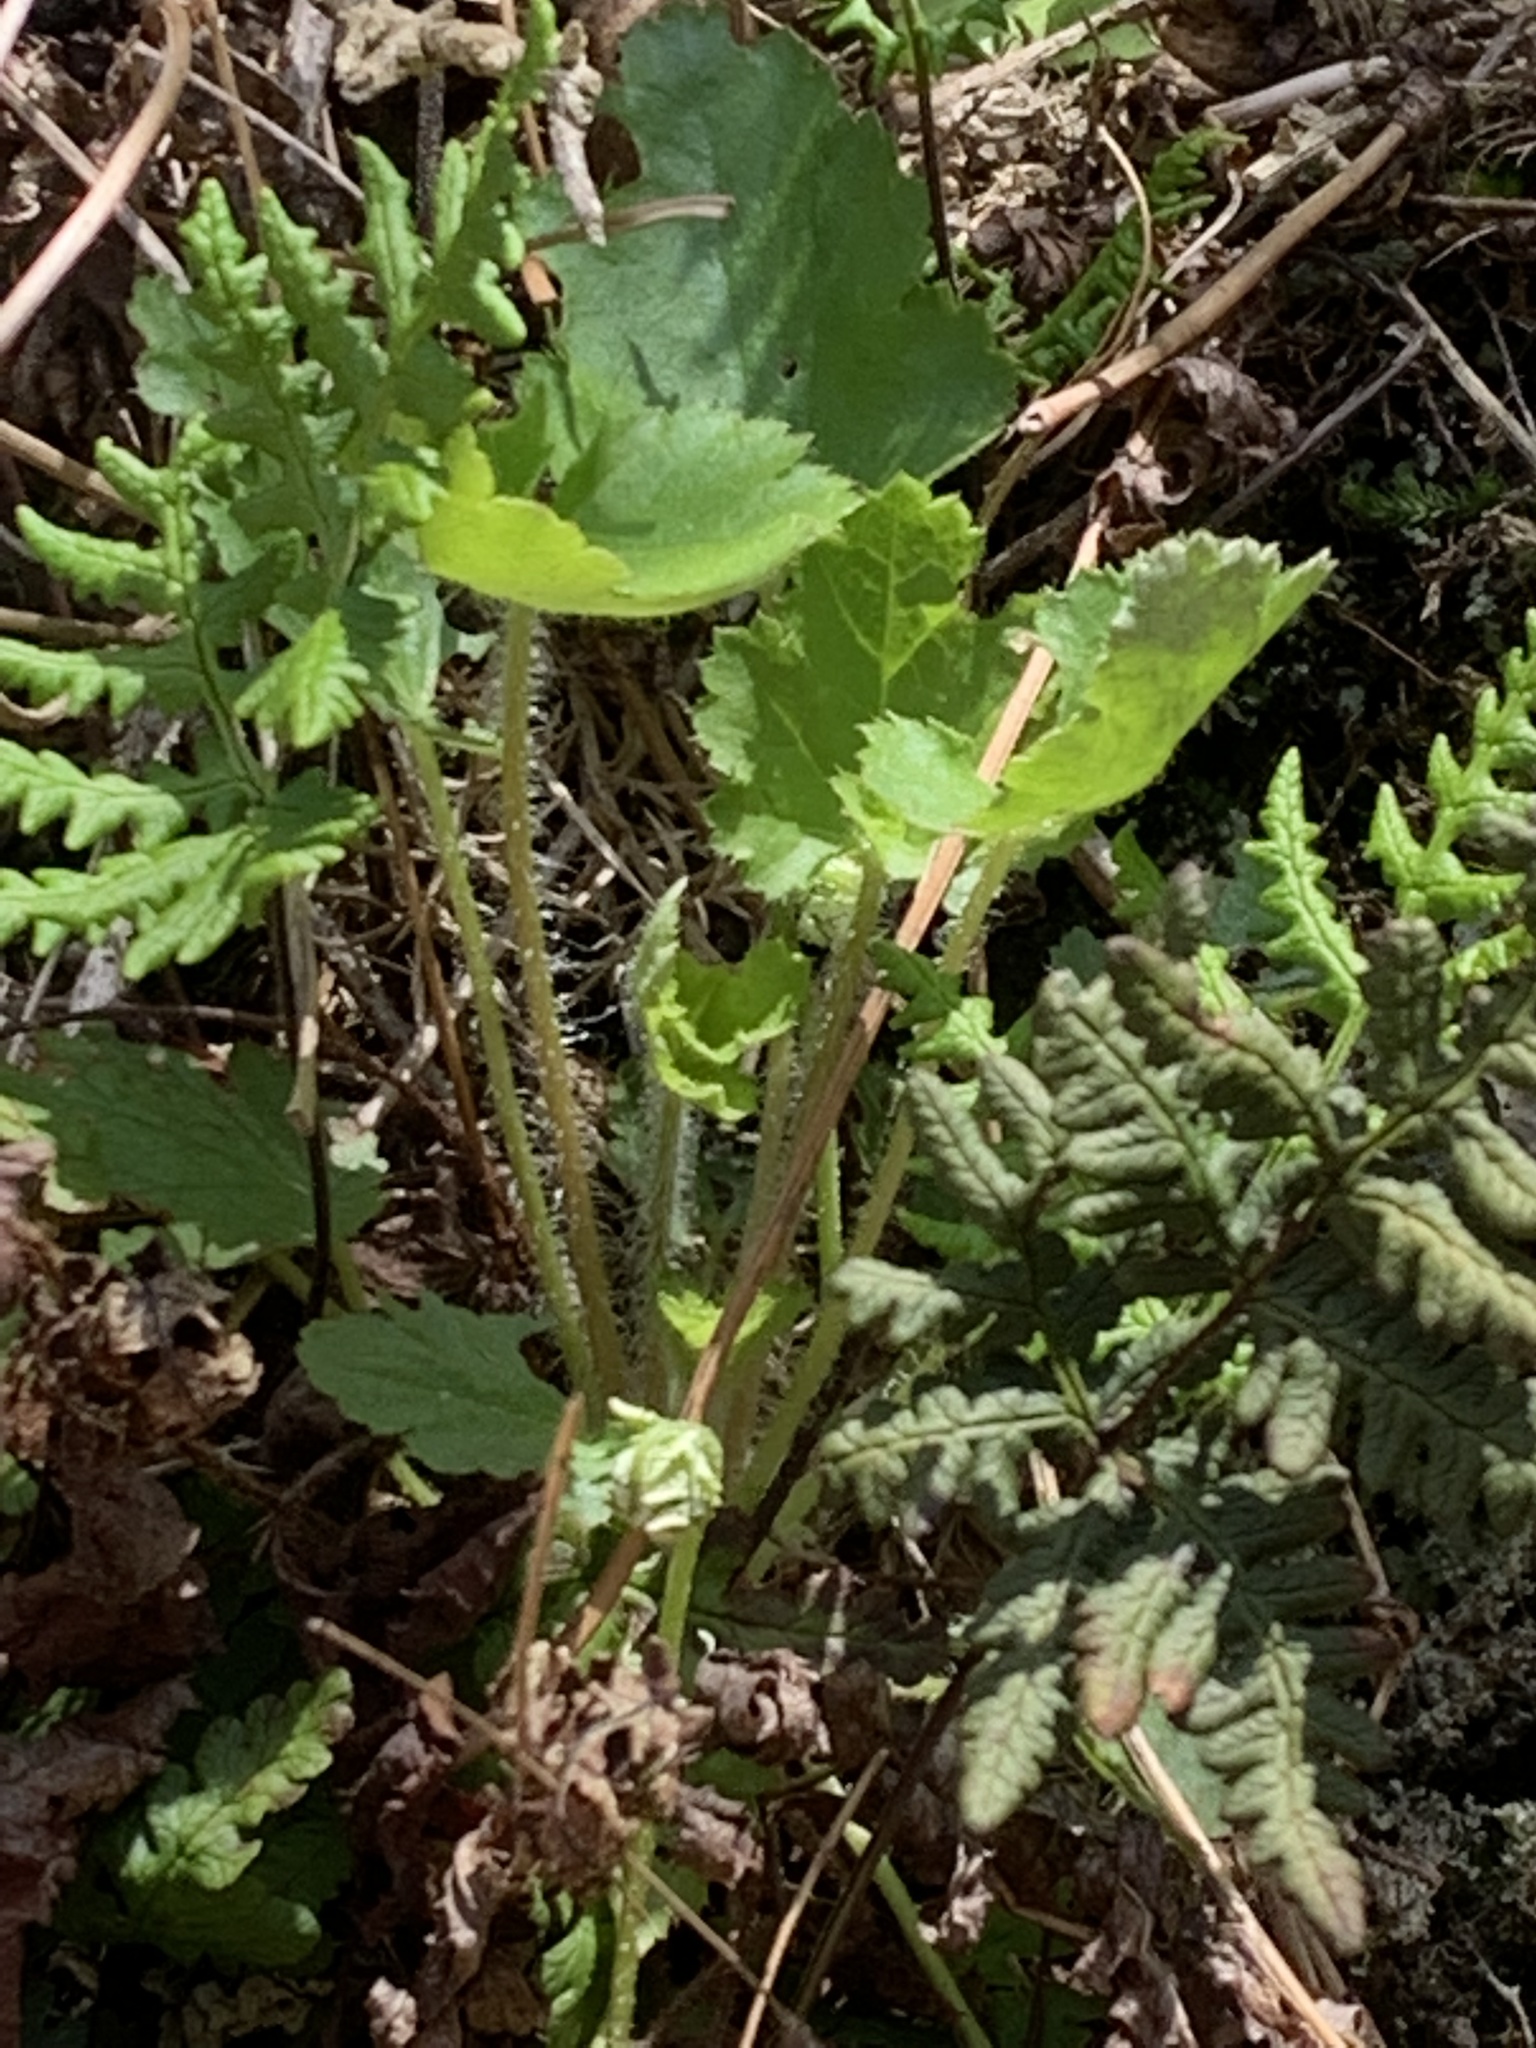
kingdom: Plantae
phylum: Tracheophyta
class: Polypodiopsida
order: Polypodiales
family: Pteridaceae
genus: Pentagramma
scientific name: Pentagramma triangularis
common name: Gold fern
